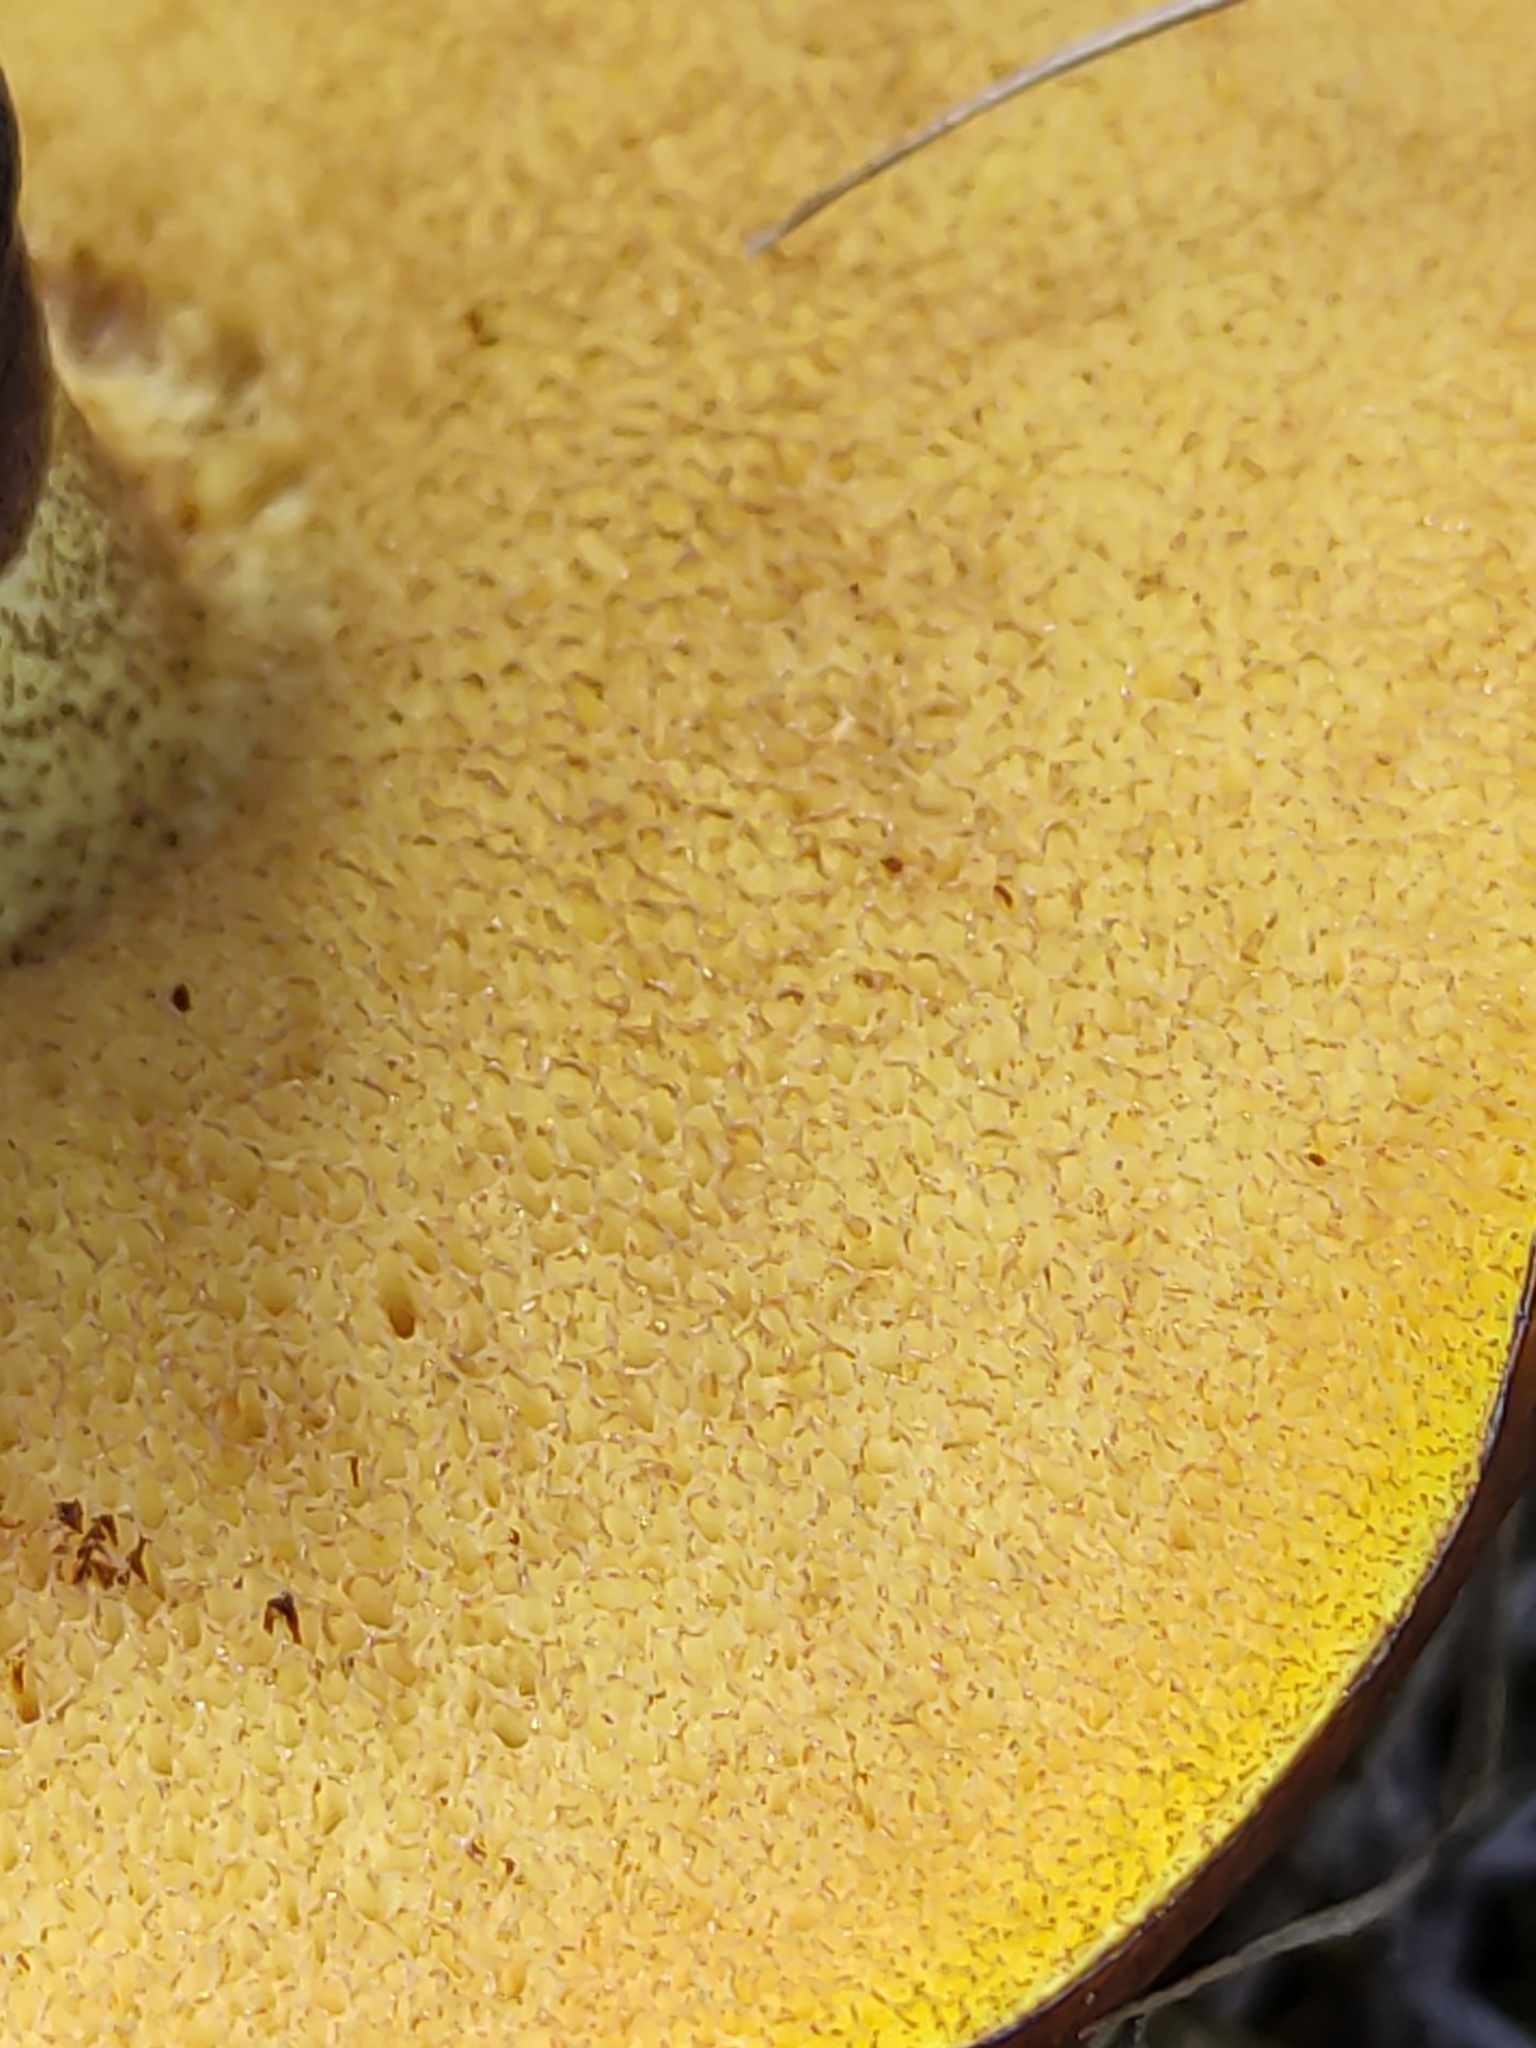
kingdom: Fungi
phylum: Basidiomycota
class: Agaricomycetes
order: Boletales
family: Suillaceae
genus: Suillus
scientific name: Suillus luteus
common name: Slippery jack
